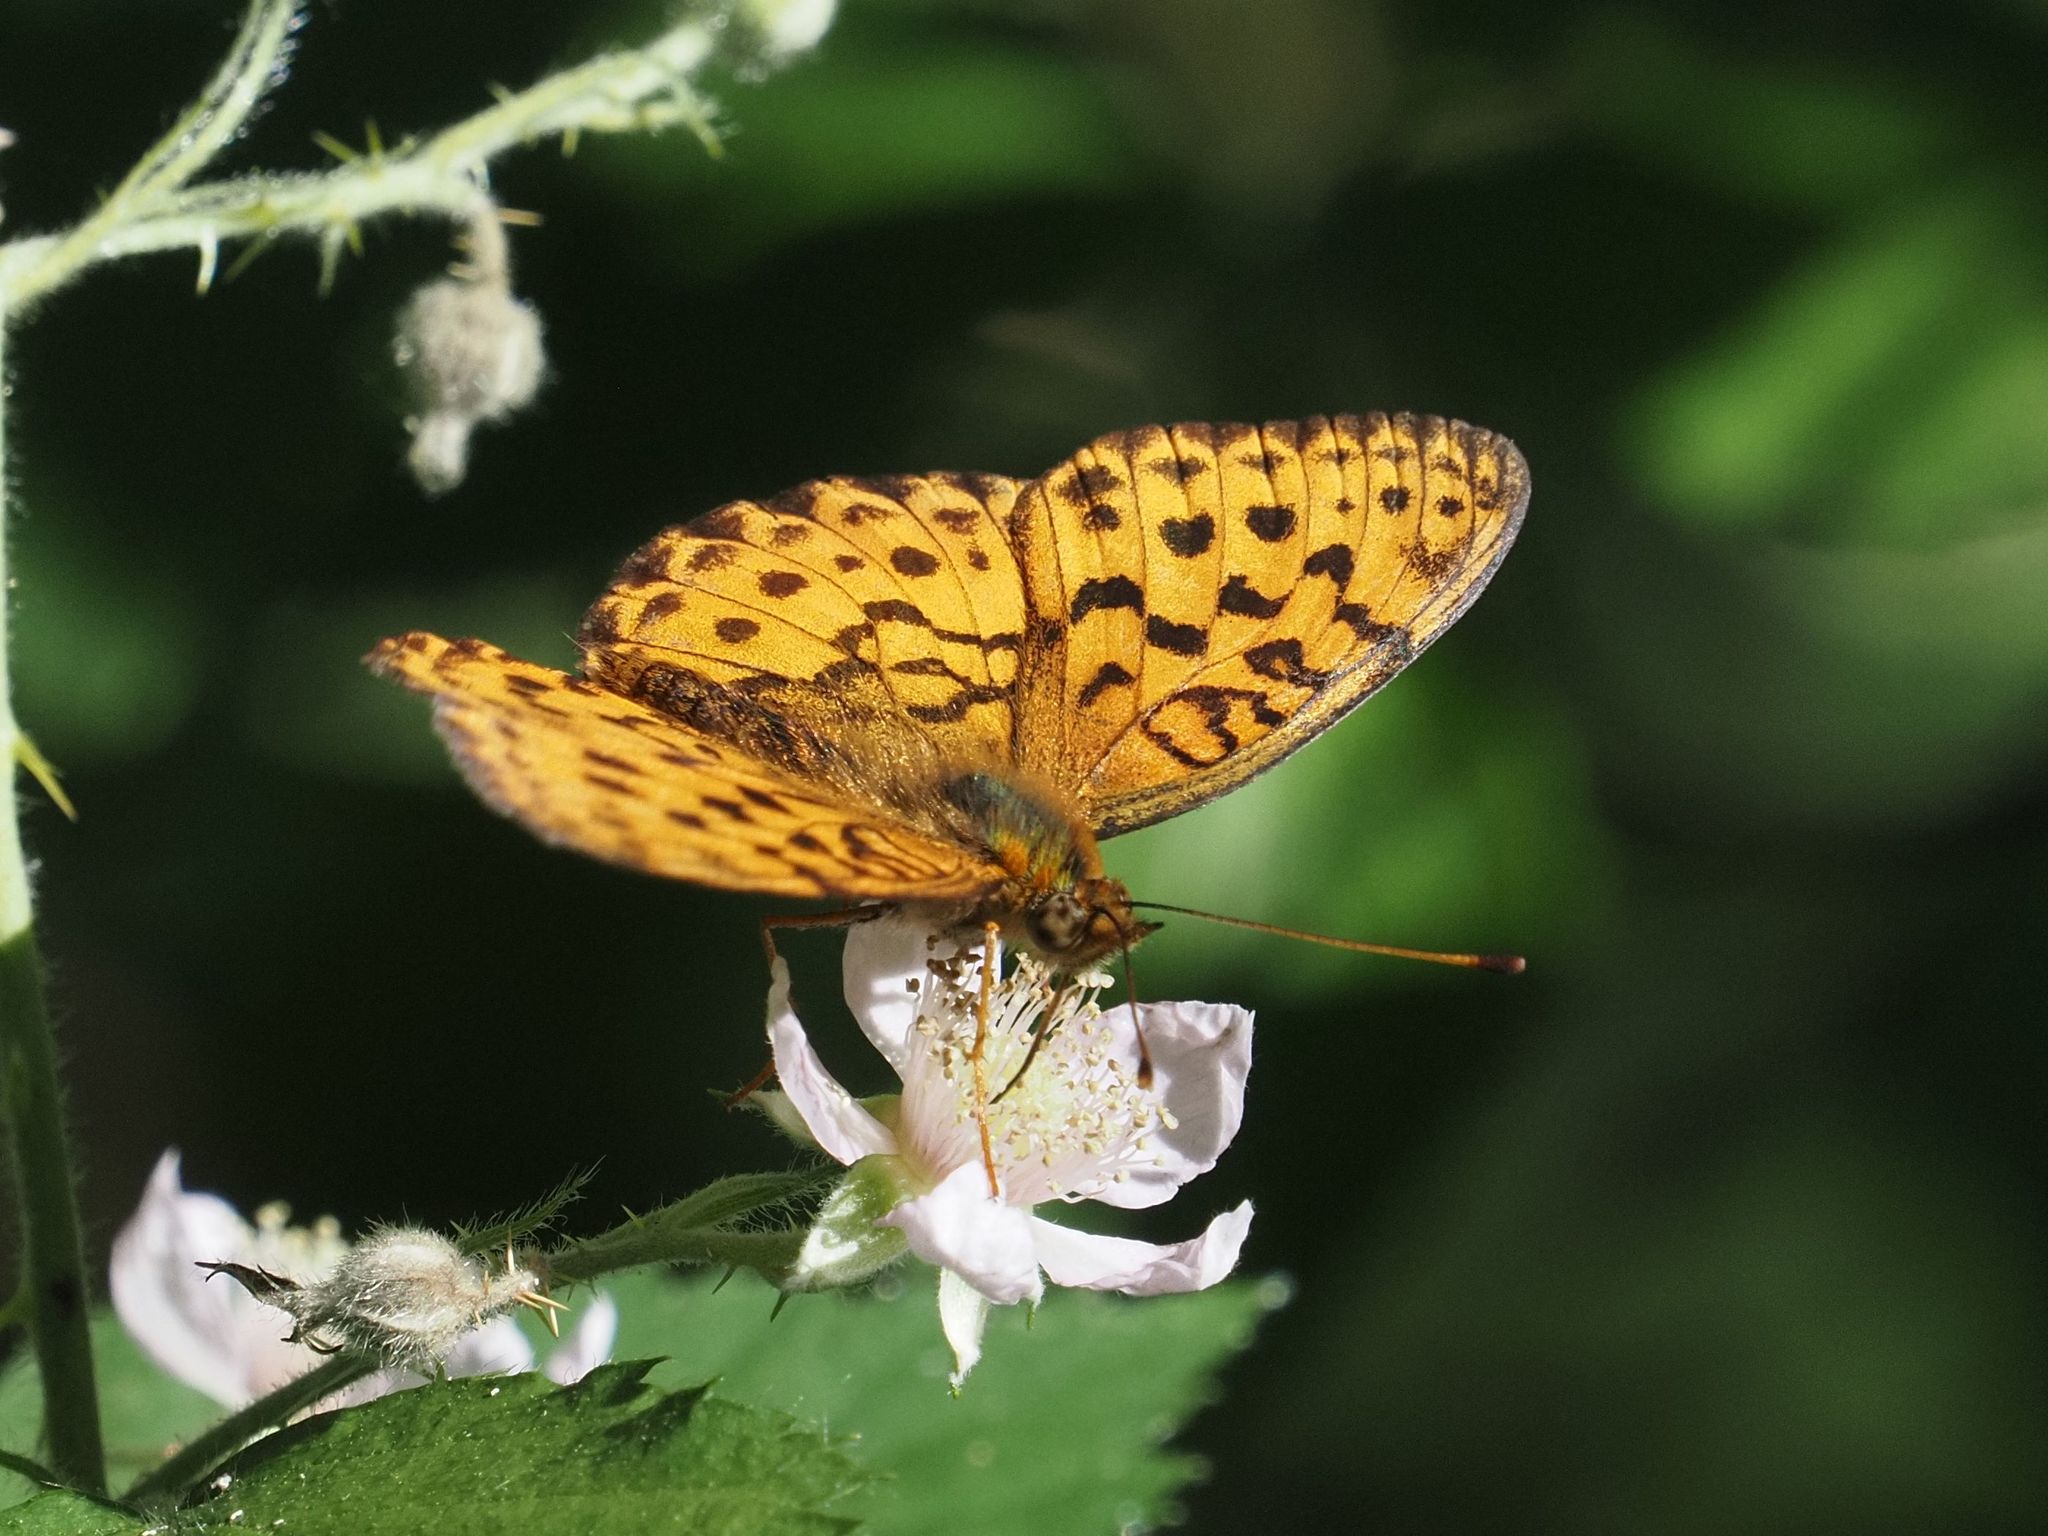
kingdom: Animalia
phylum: Arthropoda
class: Insecta
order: Lepidoptera
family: Nymphalidae
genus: Brenthis
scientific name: Brenthis daphne
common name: Marbled fritillary
